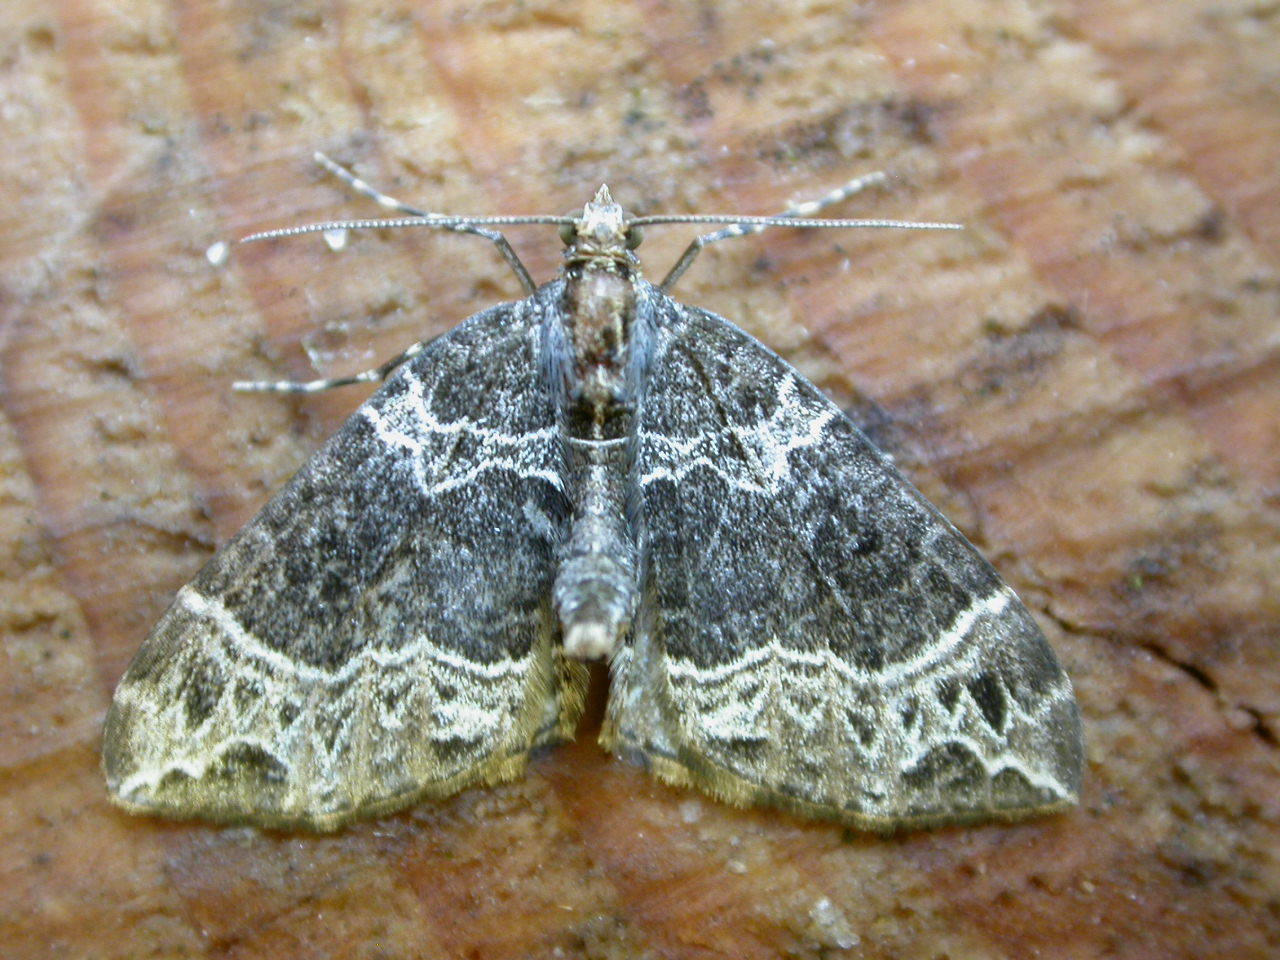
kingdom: Animalia
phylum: Arthropoda
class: Insecta
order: Lepidoptera
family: Geometridae
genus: Ecliptopera
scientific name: Ecliptopera silaceata
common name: Small phoenix
